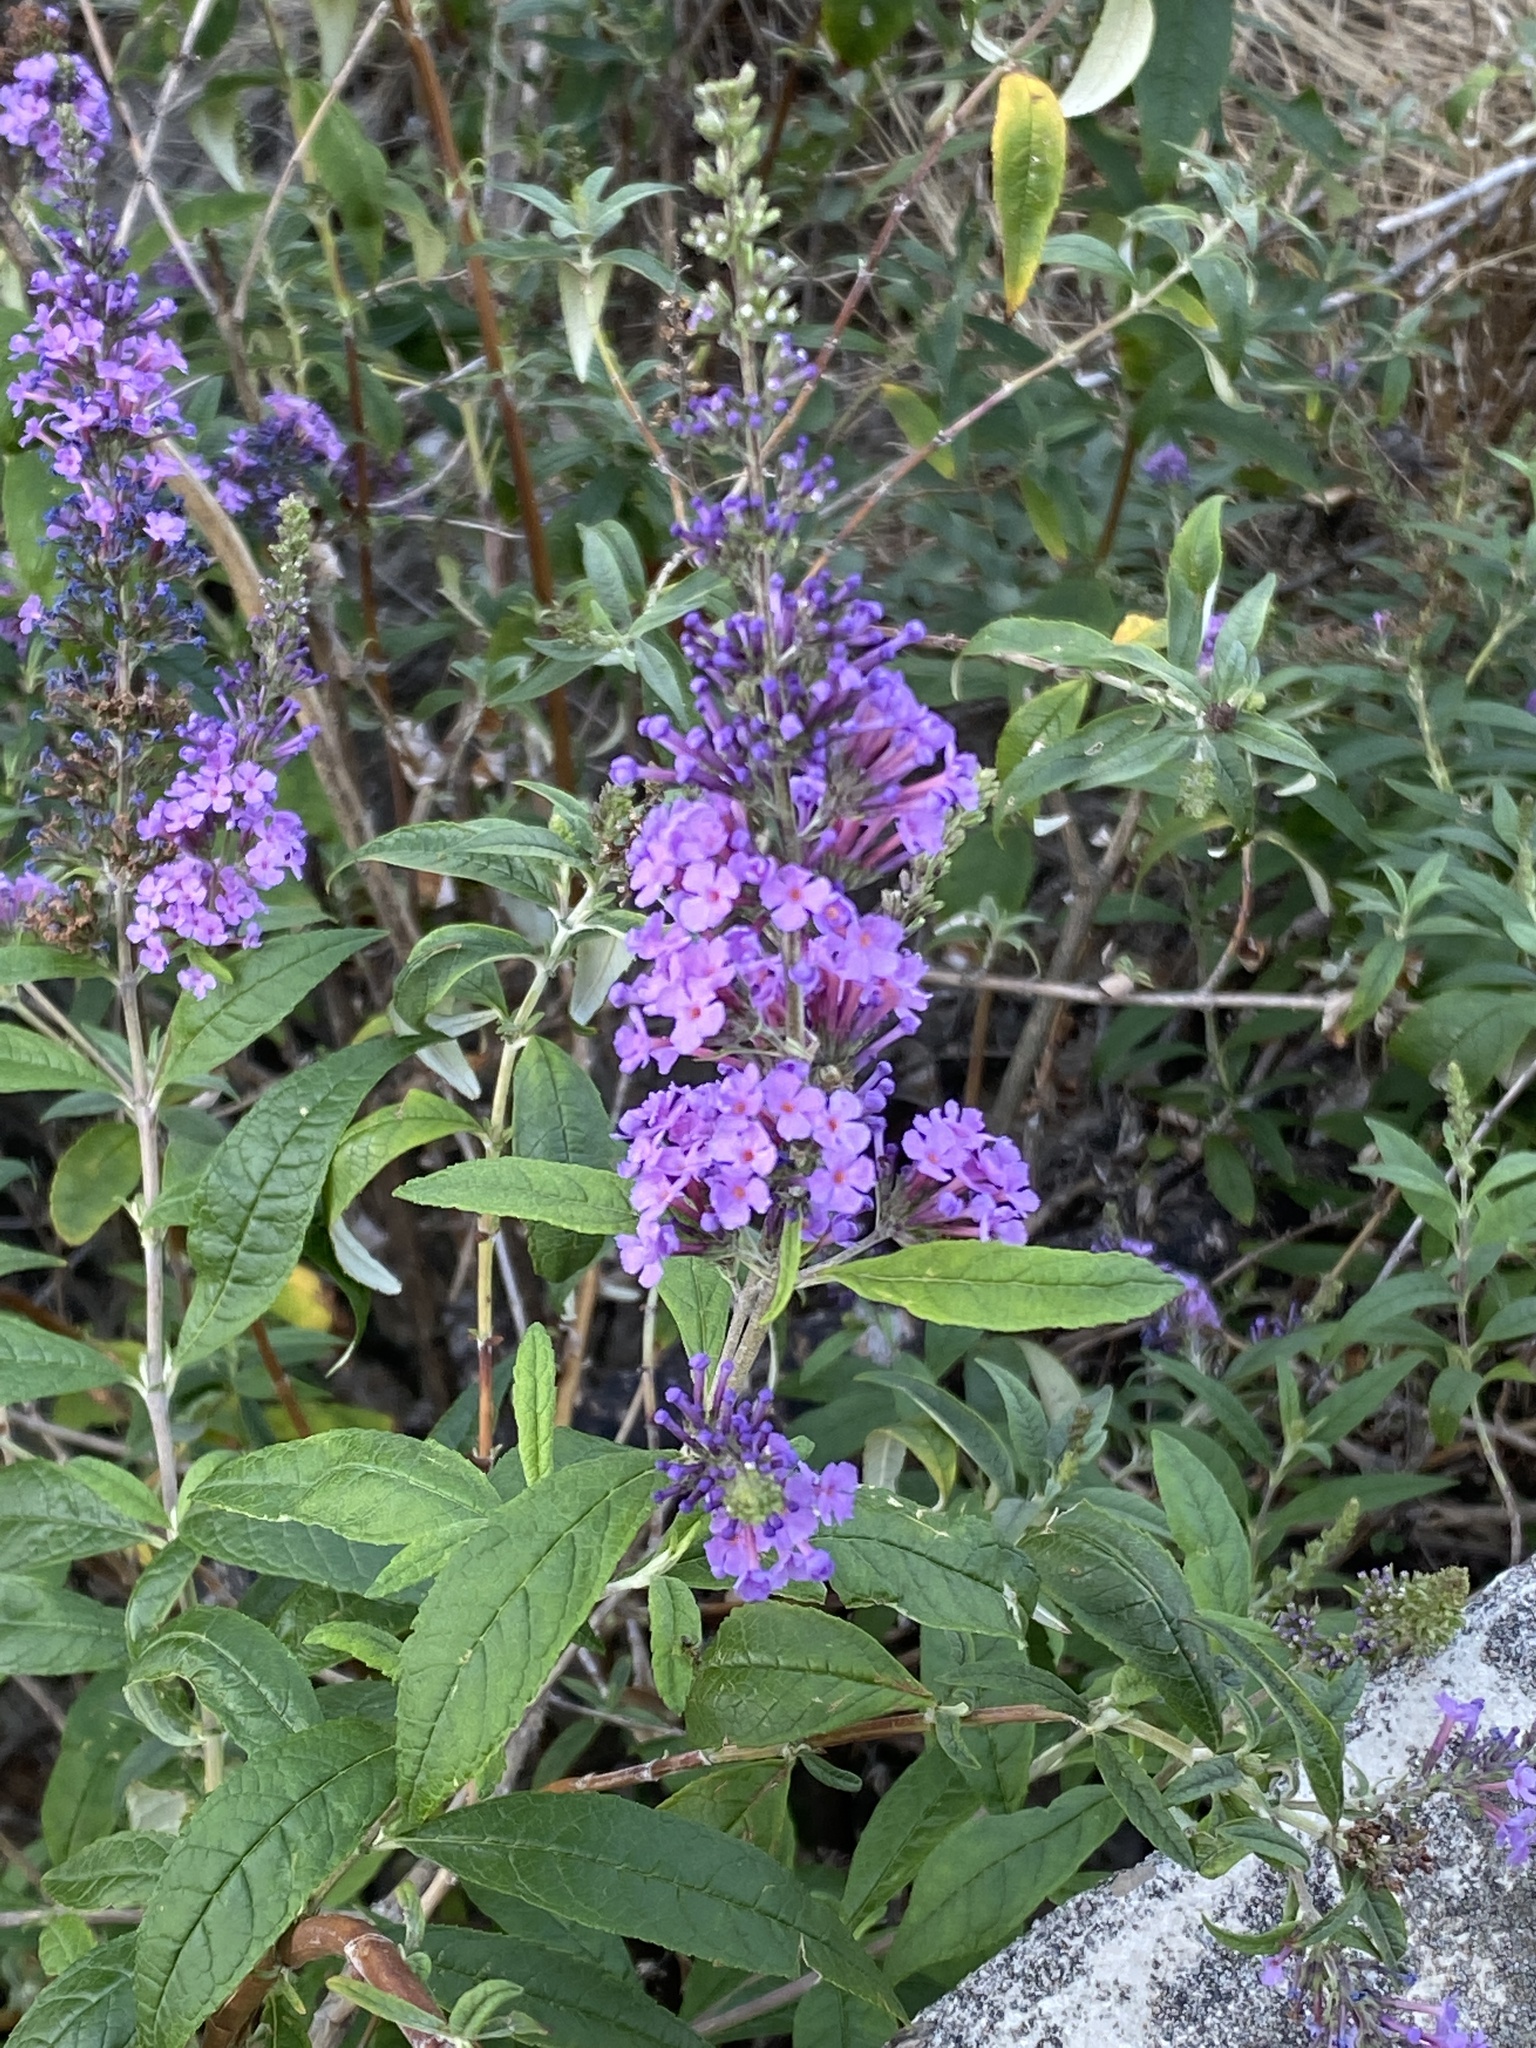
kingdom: Plantae
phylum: Tracheophyta
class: Magnoliopsida
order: Lamiales
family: Scrophulariaceae
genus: Buddleja
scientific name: Buddleja davidii
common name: Butterfly-bush
